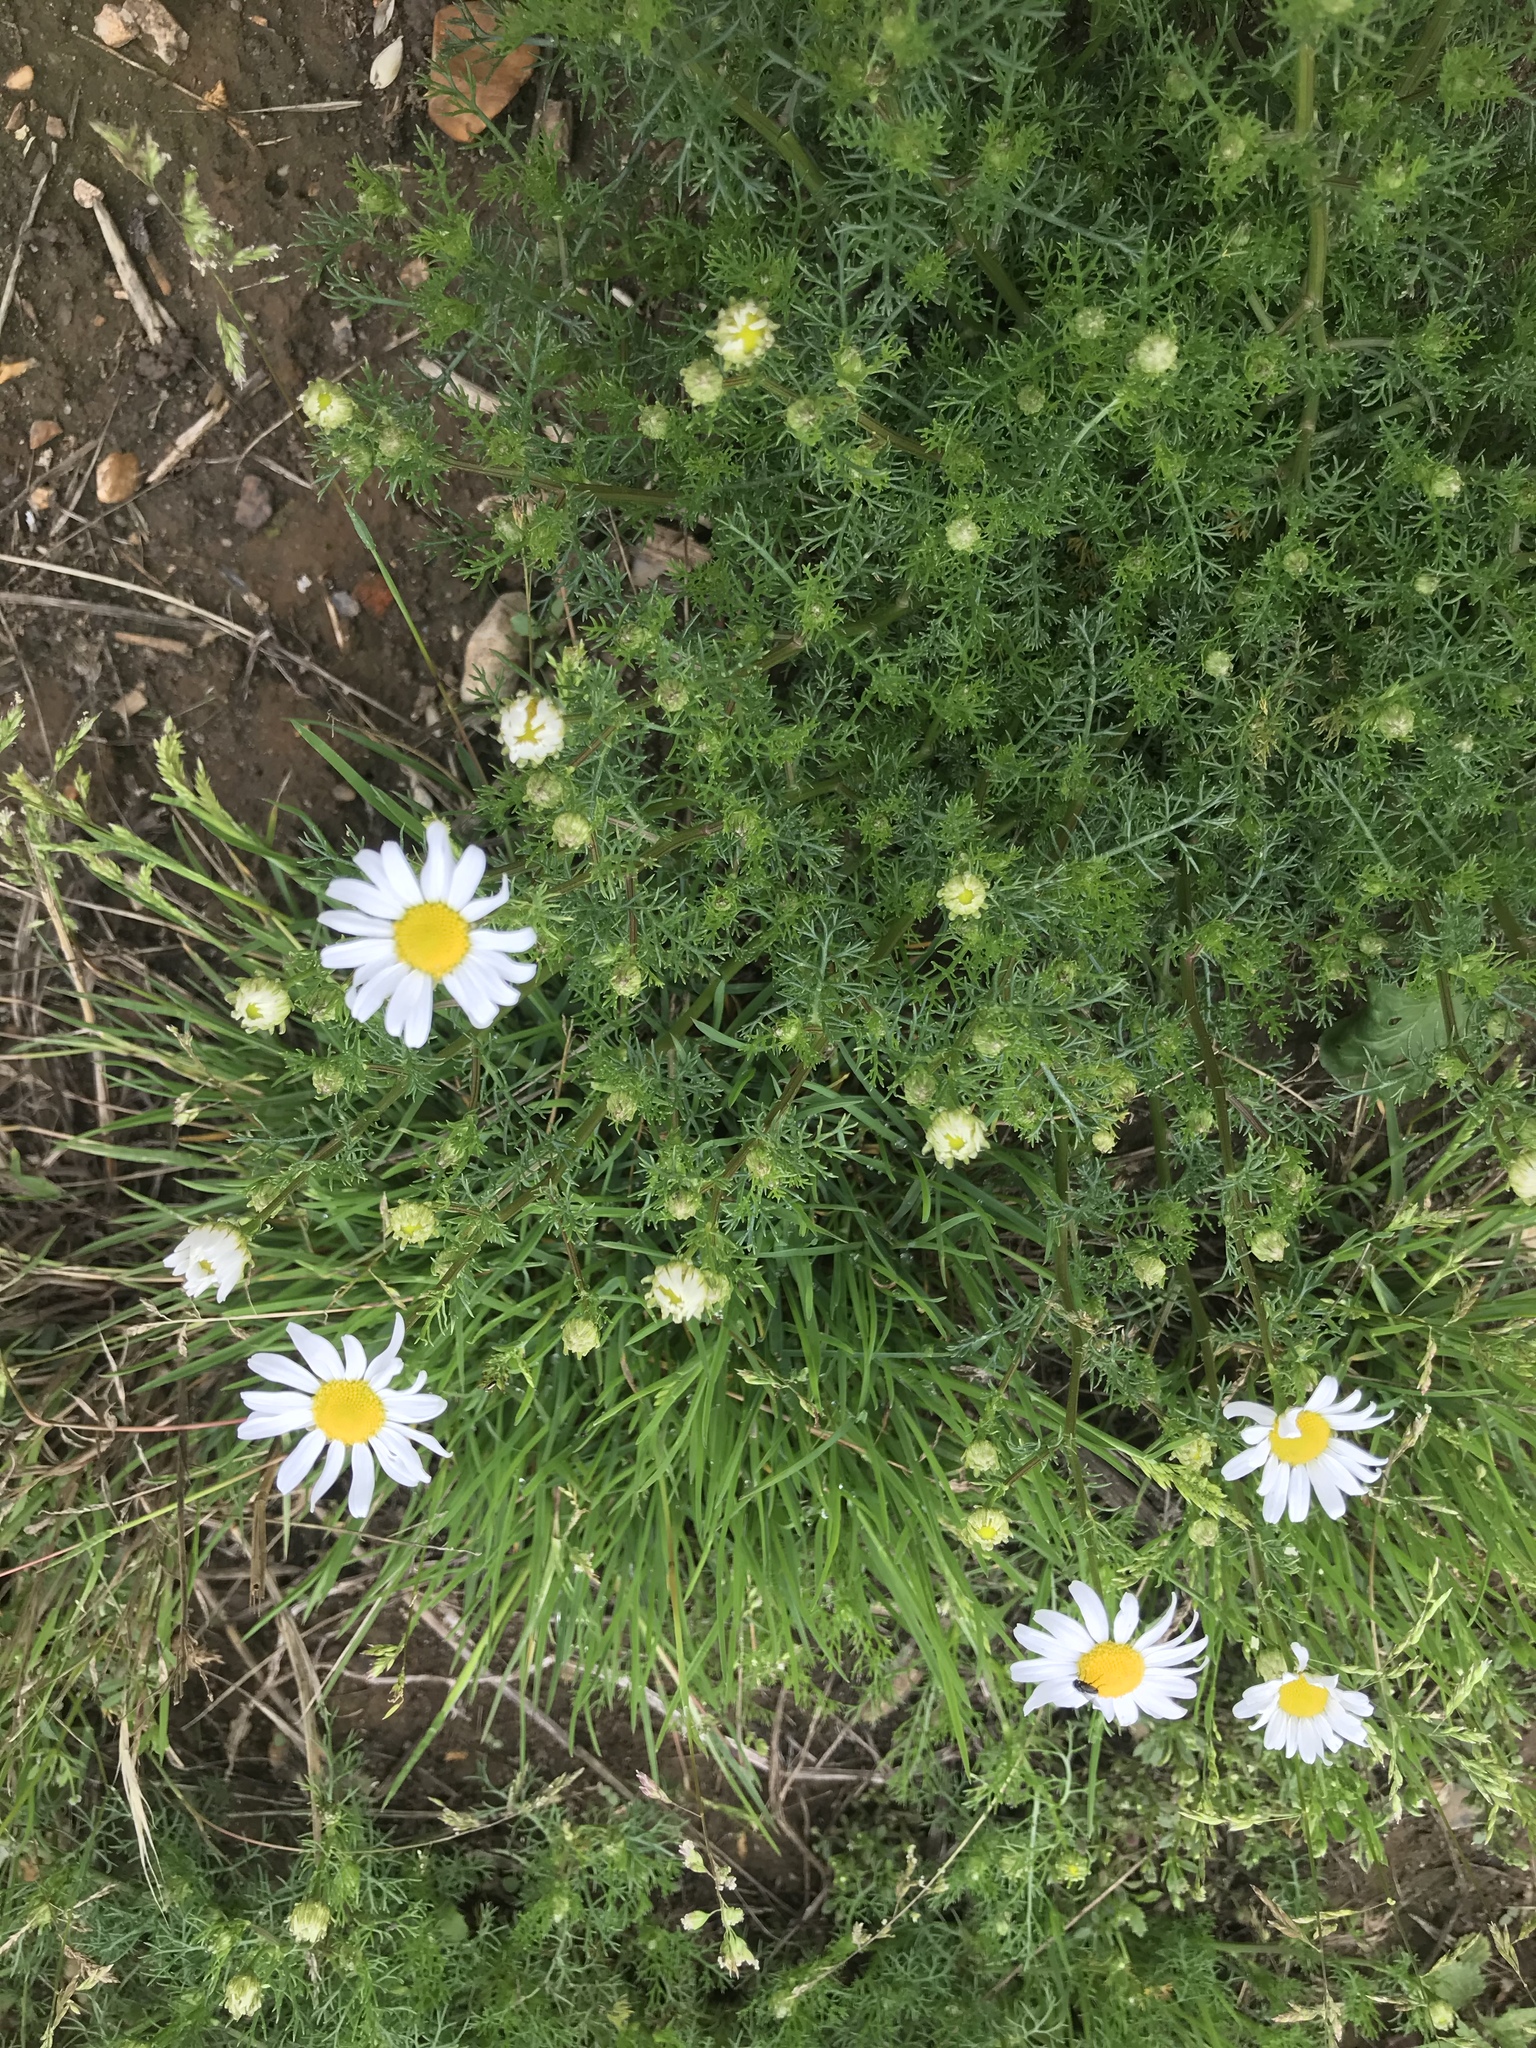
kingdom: Plantae
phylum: Tracheophyta
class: Magnoliopsida
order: Asterales
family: Asteraceae
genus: Tripleurospermum
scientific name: Tripleurospermum inodorum
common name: Scentless mayweed
